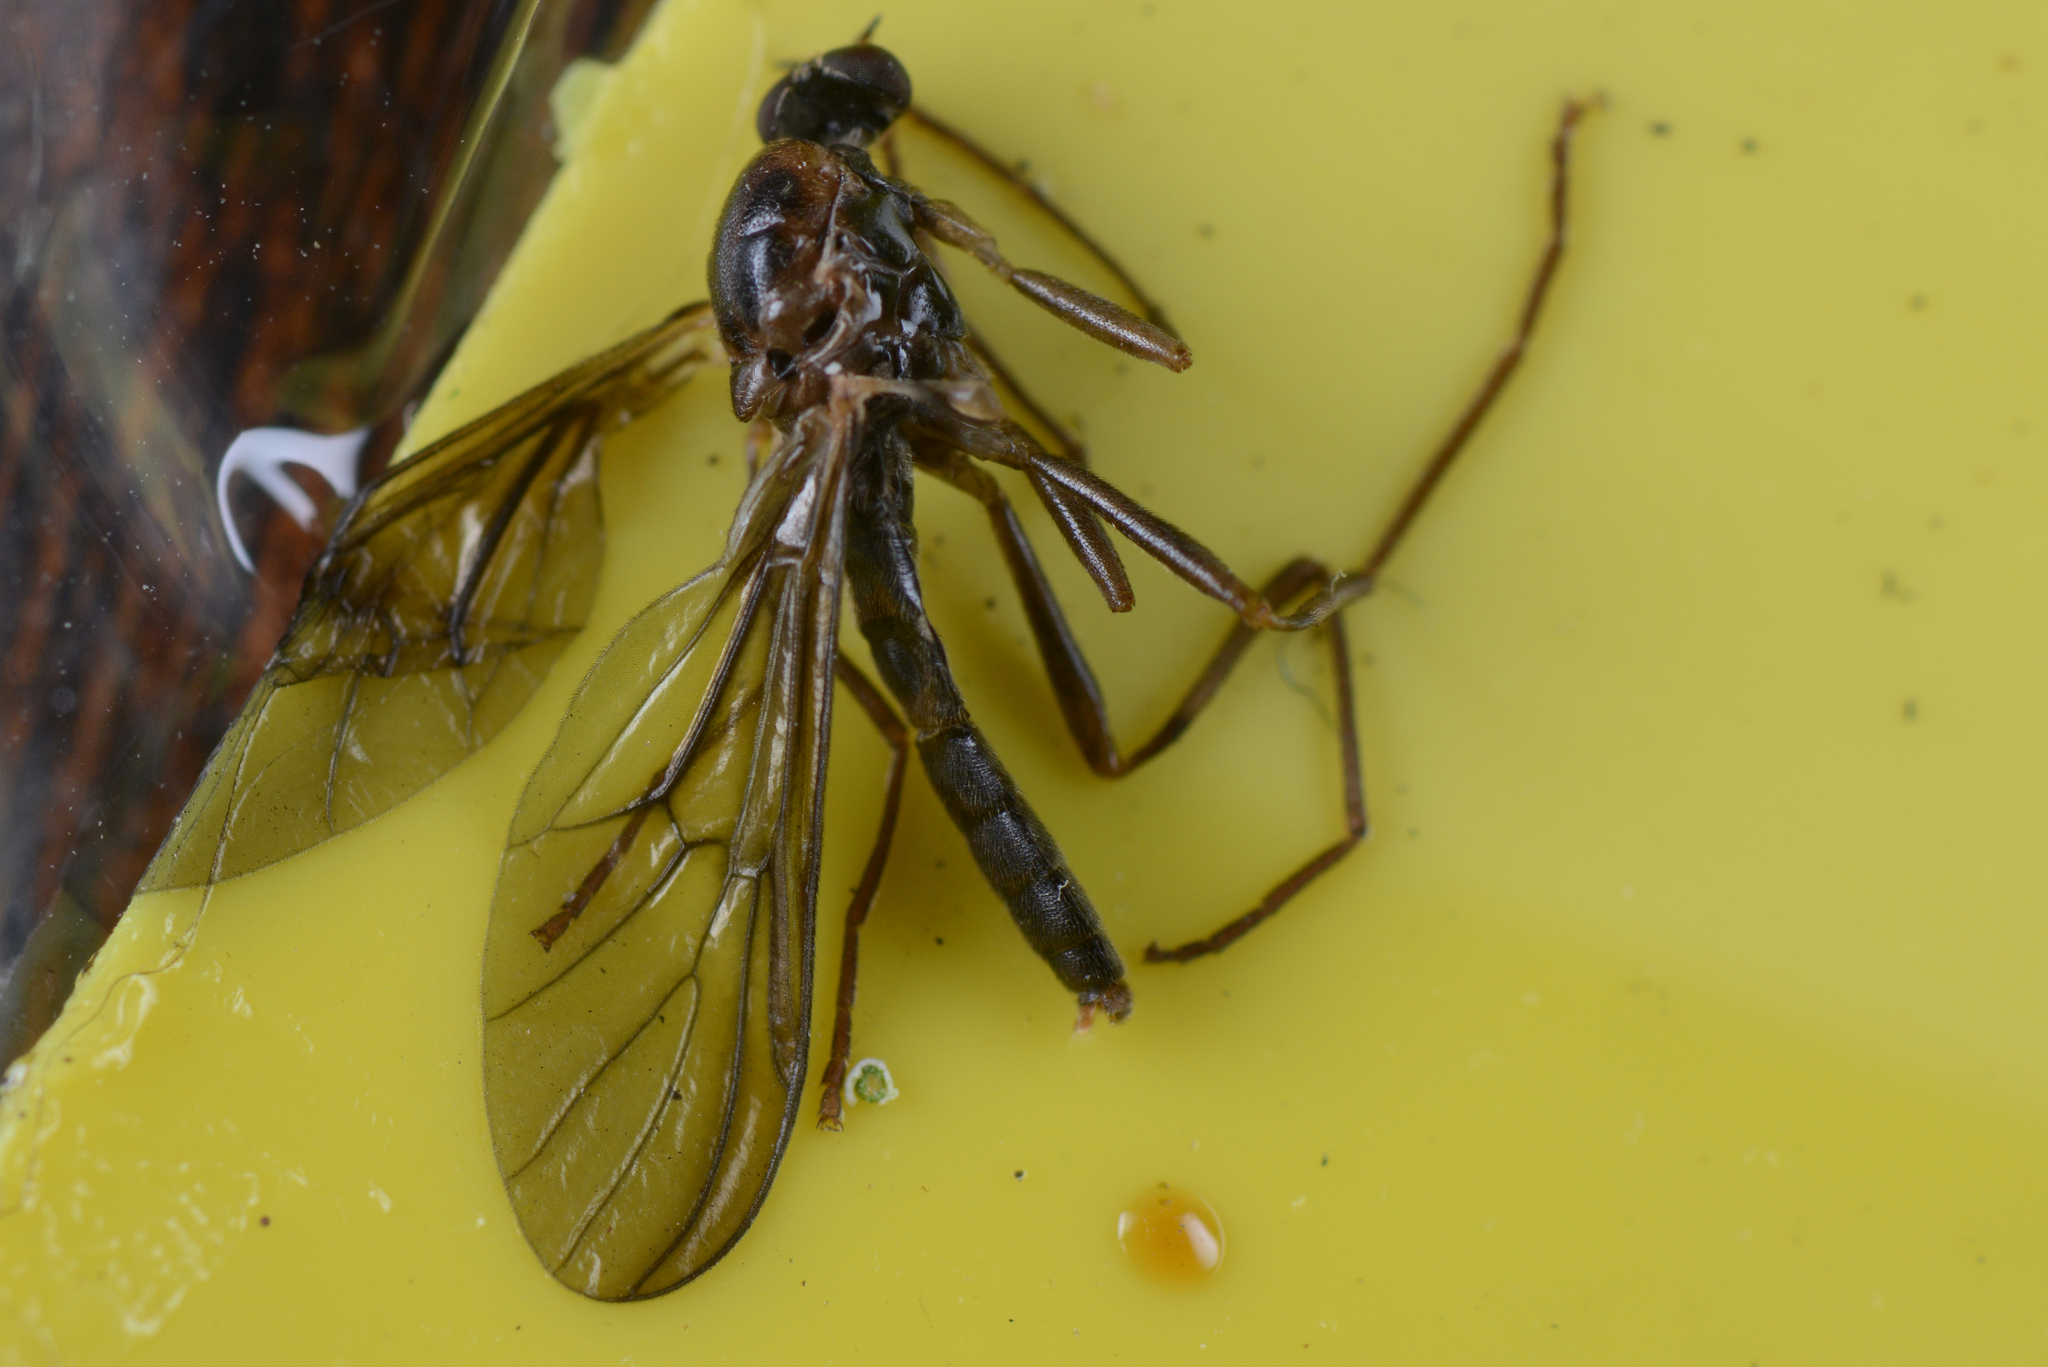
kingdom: Animalia
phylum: Arthropoda
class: Insecta
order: Diptera
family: Stratiomyidae
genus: Boreoides
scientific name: Boreoides tasmaniensis
